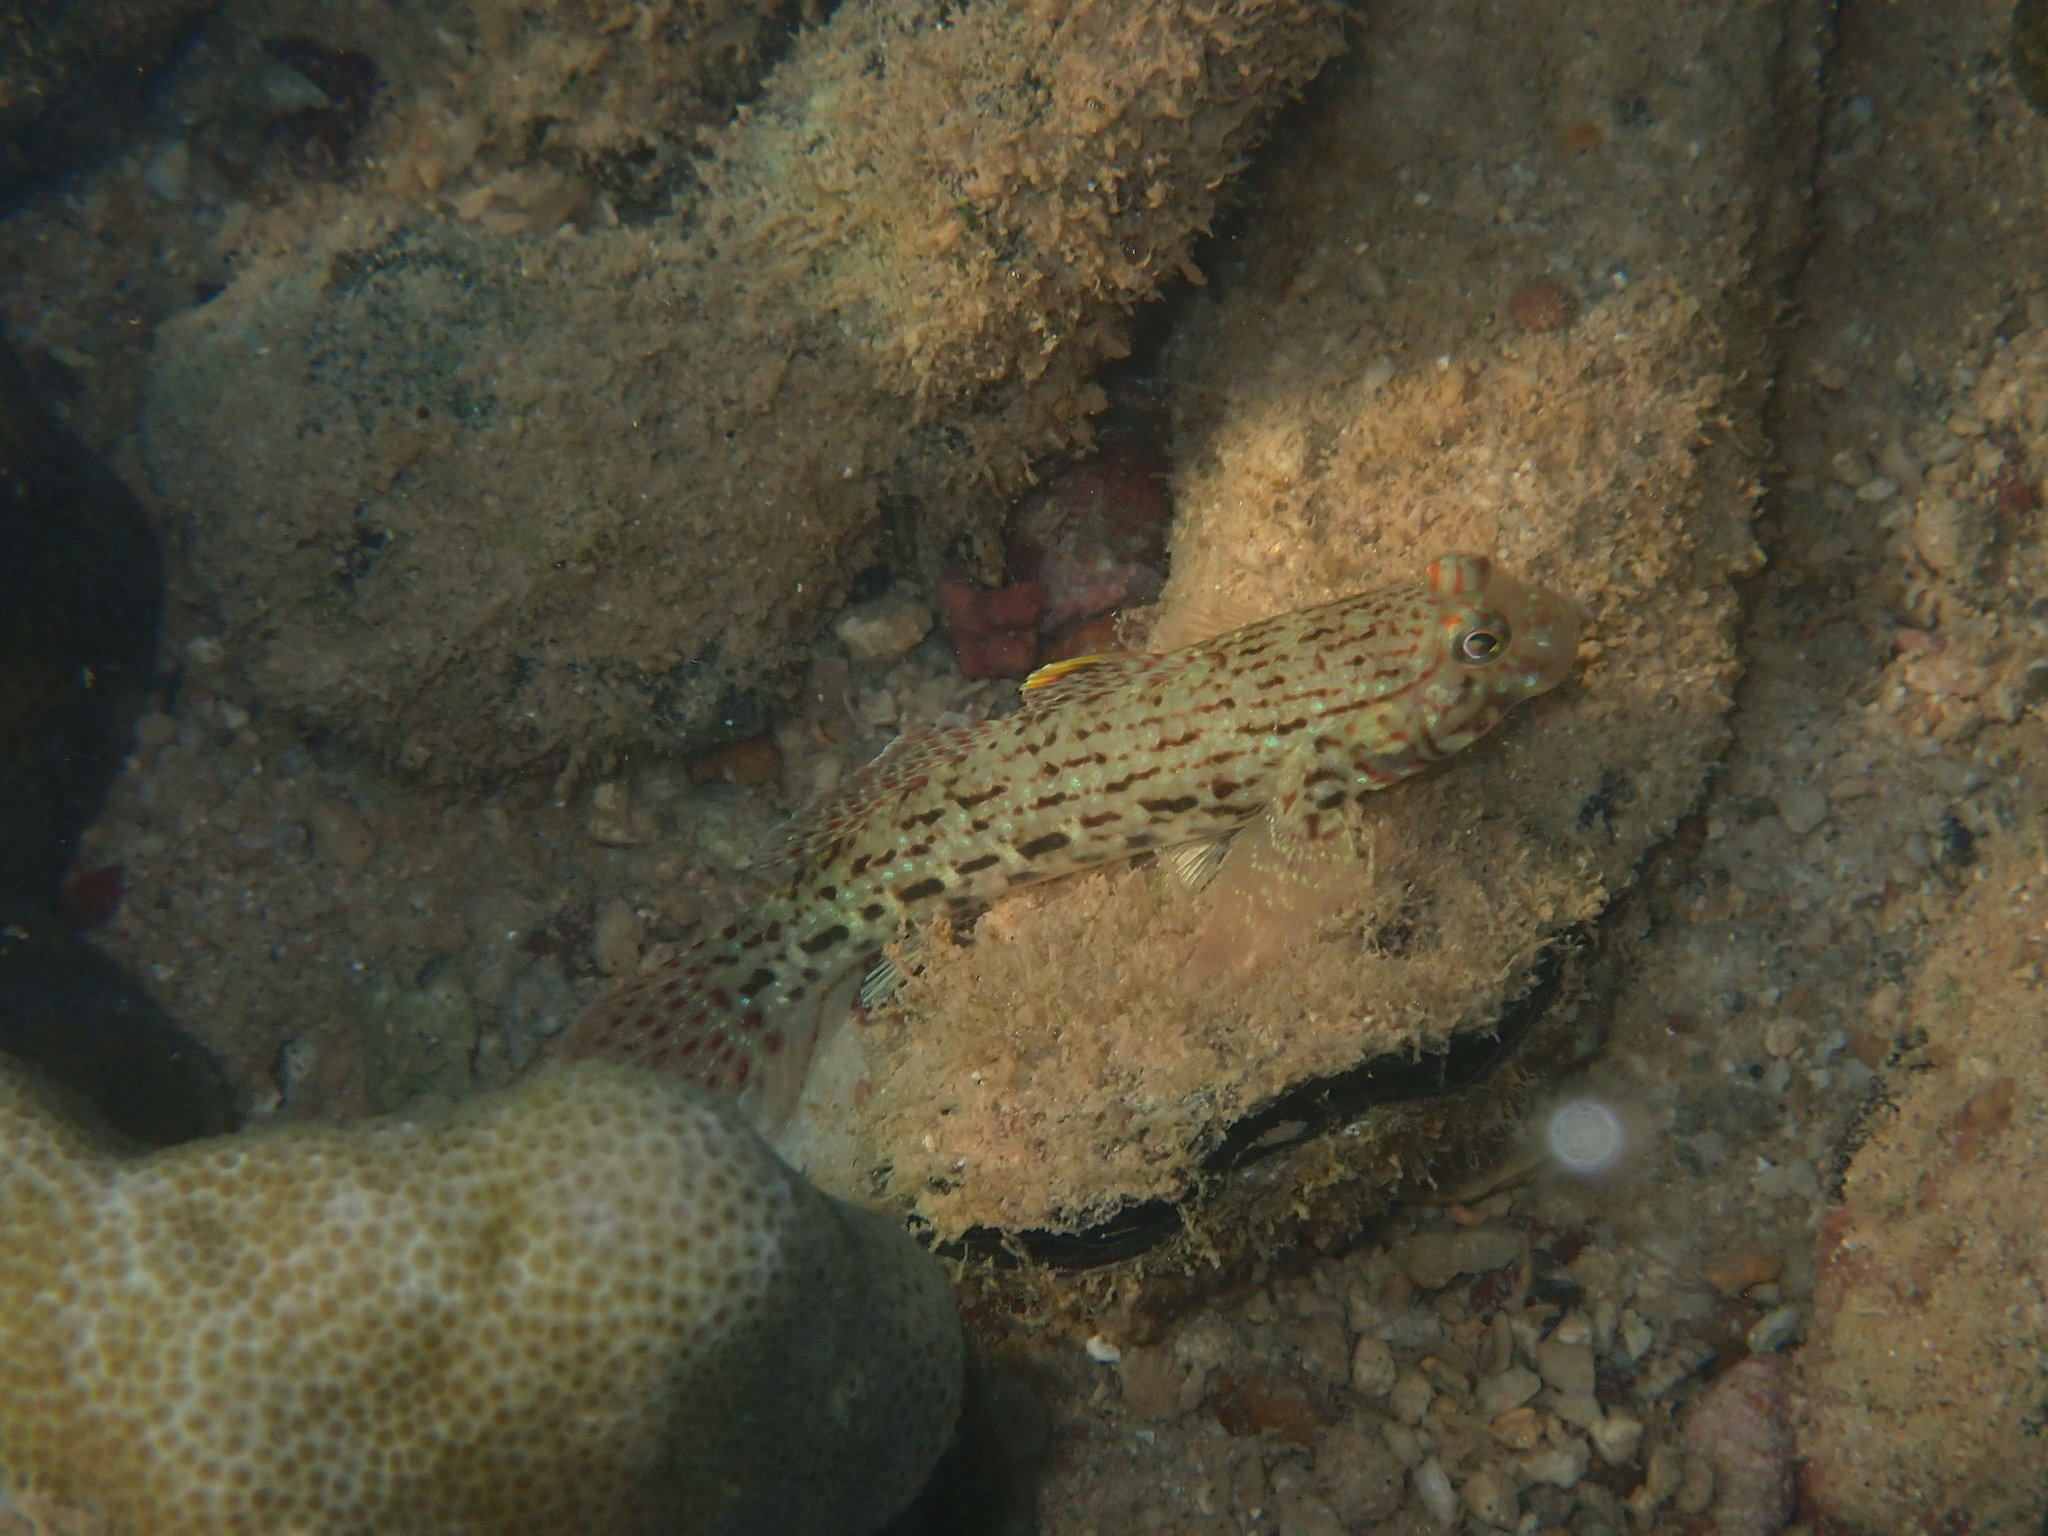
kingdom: Animalia
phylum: Chordata
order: Perciformes
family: Gobiidae
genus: Istigobius
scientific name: Istigobius ornatus
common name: Ornate goby
